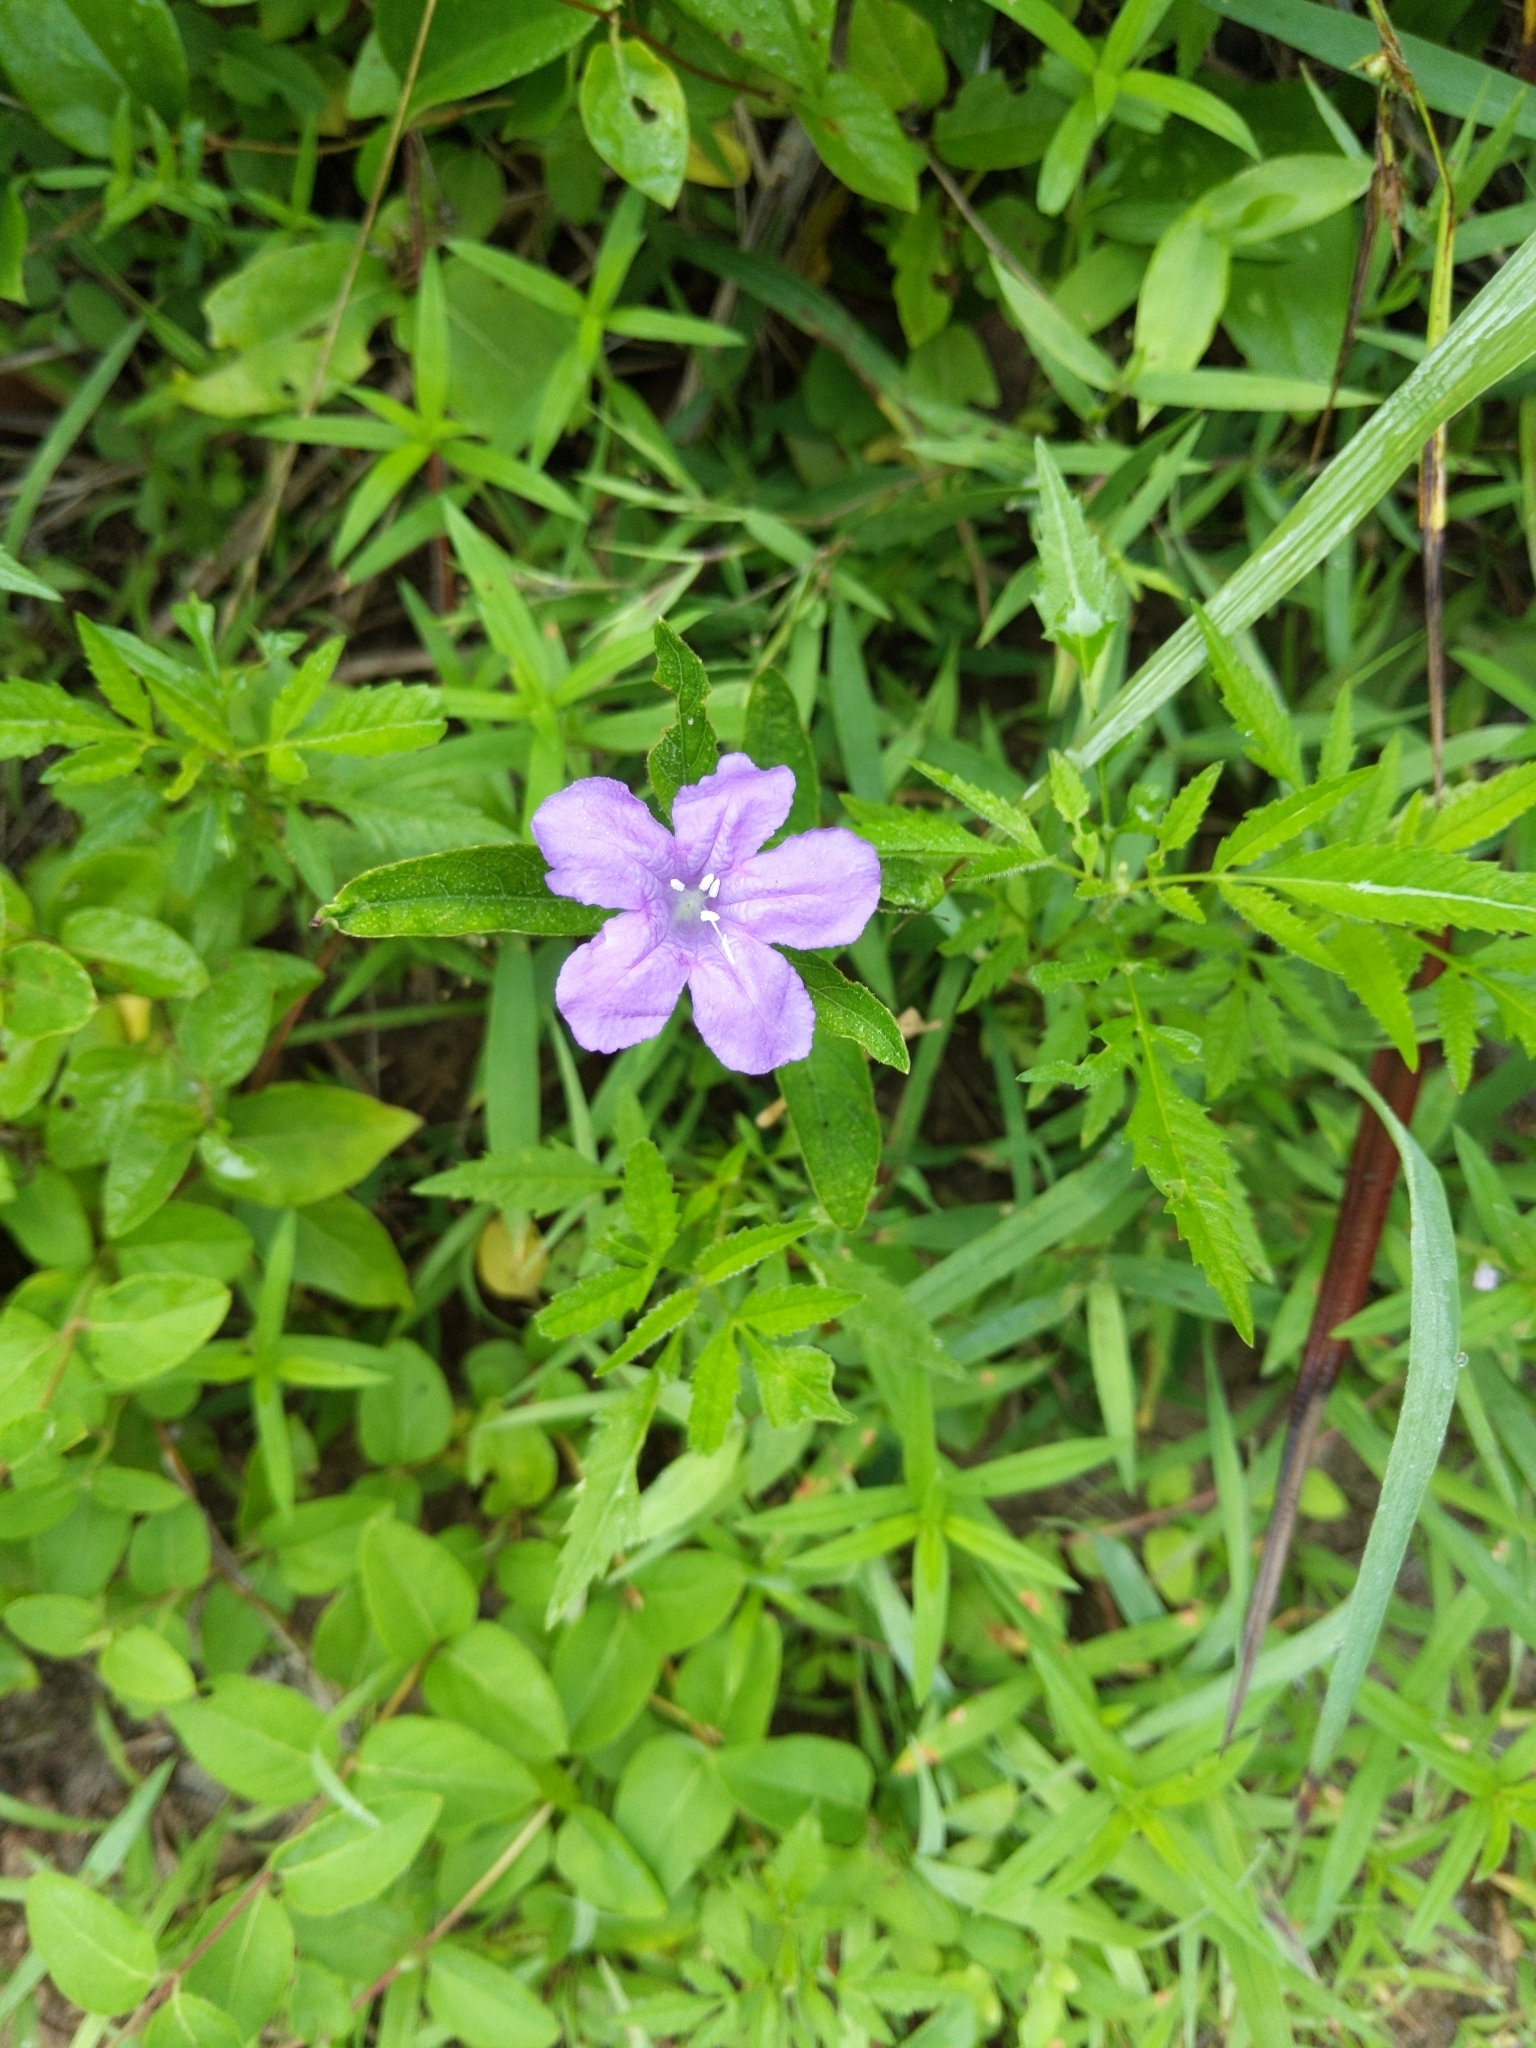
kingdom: Plantae
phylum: Tracheophyta
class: Magnoliopsida
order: Lamiales
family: Acanthaceae
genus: Ruellia
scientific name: Ruellia caroliniensis
